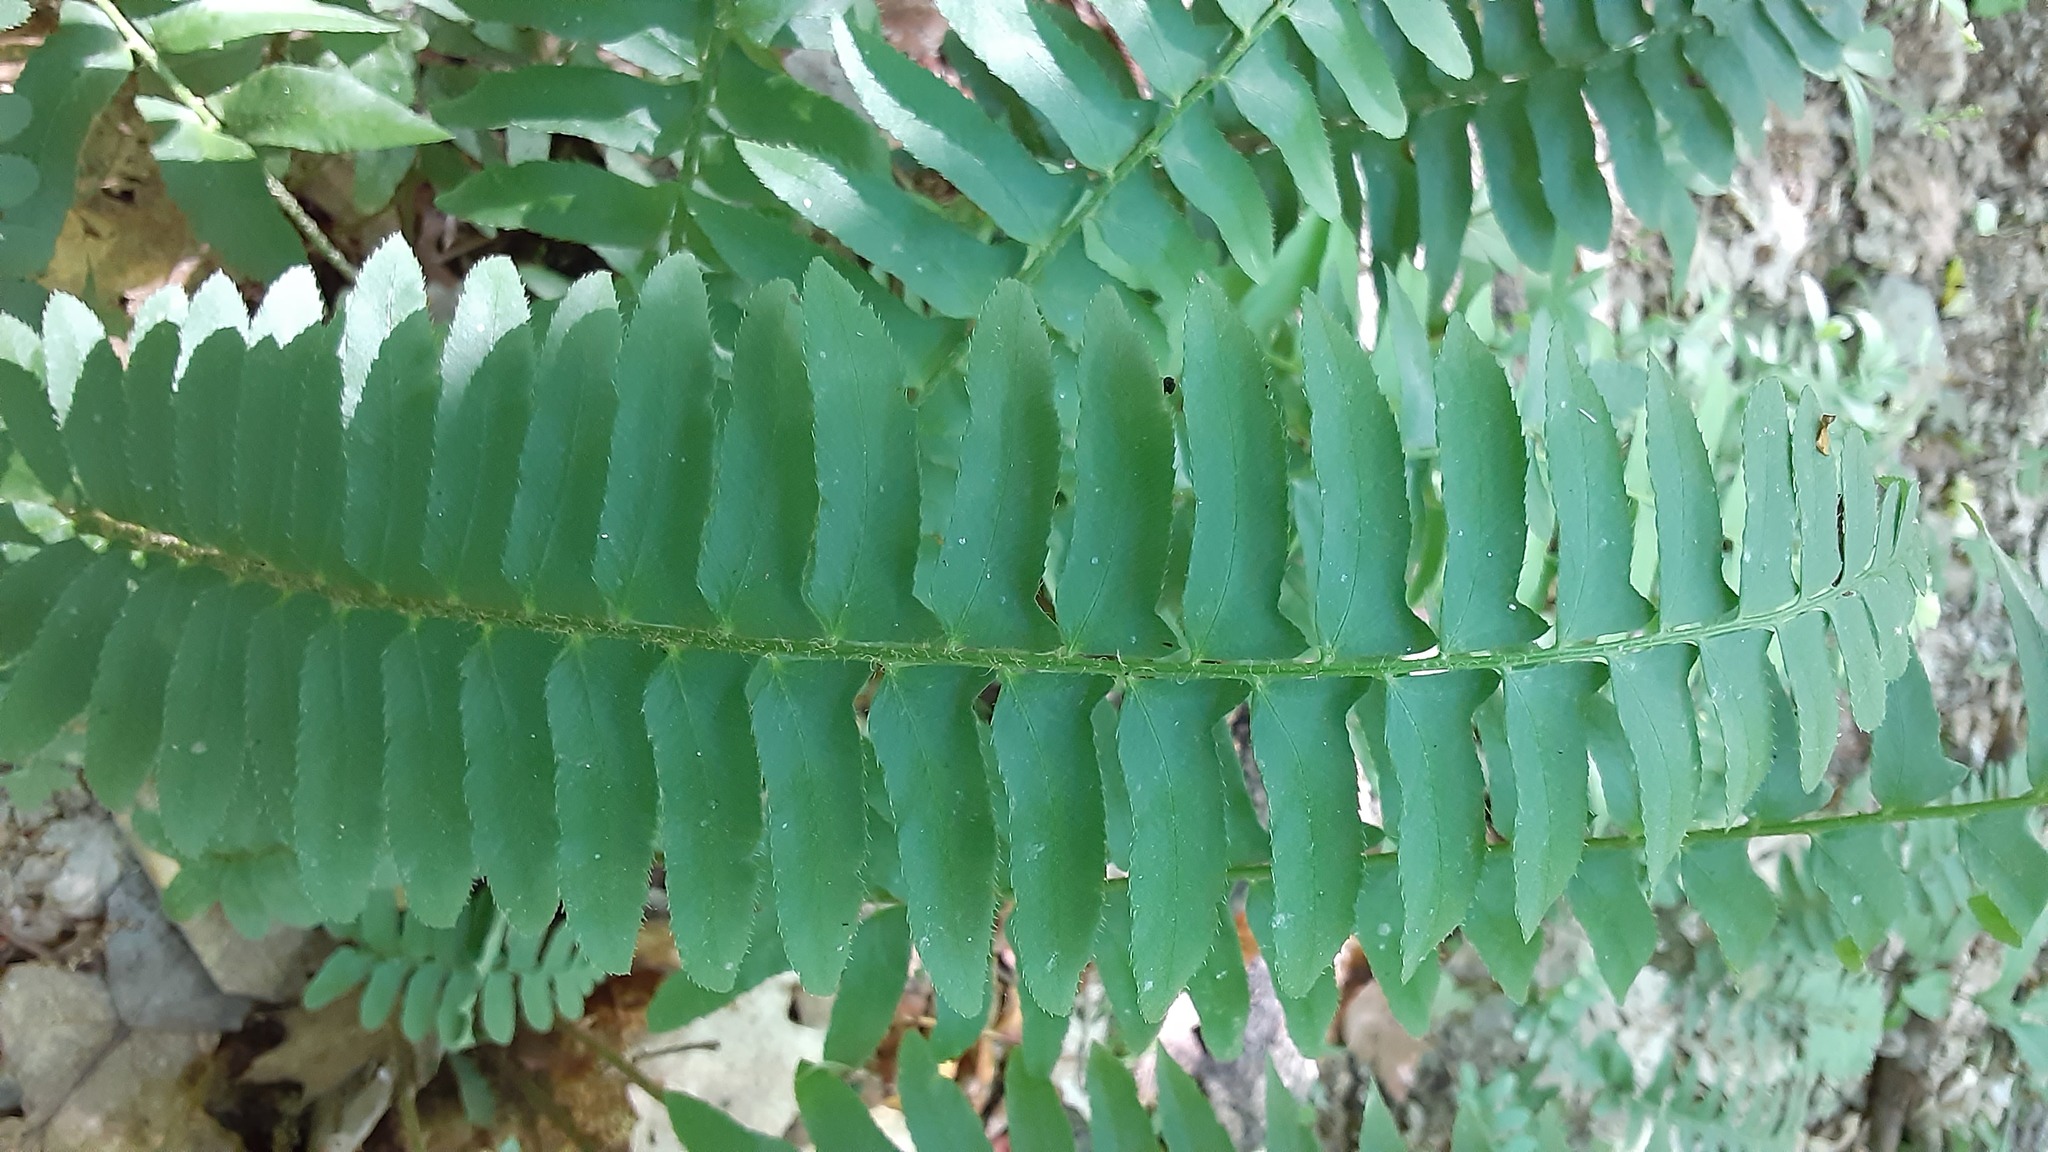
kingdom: Plantae
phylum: Tracheophyta
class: Polypodiopsida
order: Polypodiales
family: Dryopteridaceae
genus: Polystichum
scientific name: Polystichum acrostichoides
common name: Christmas fern
